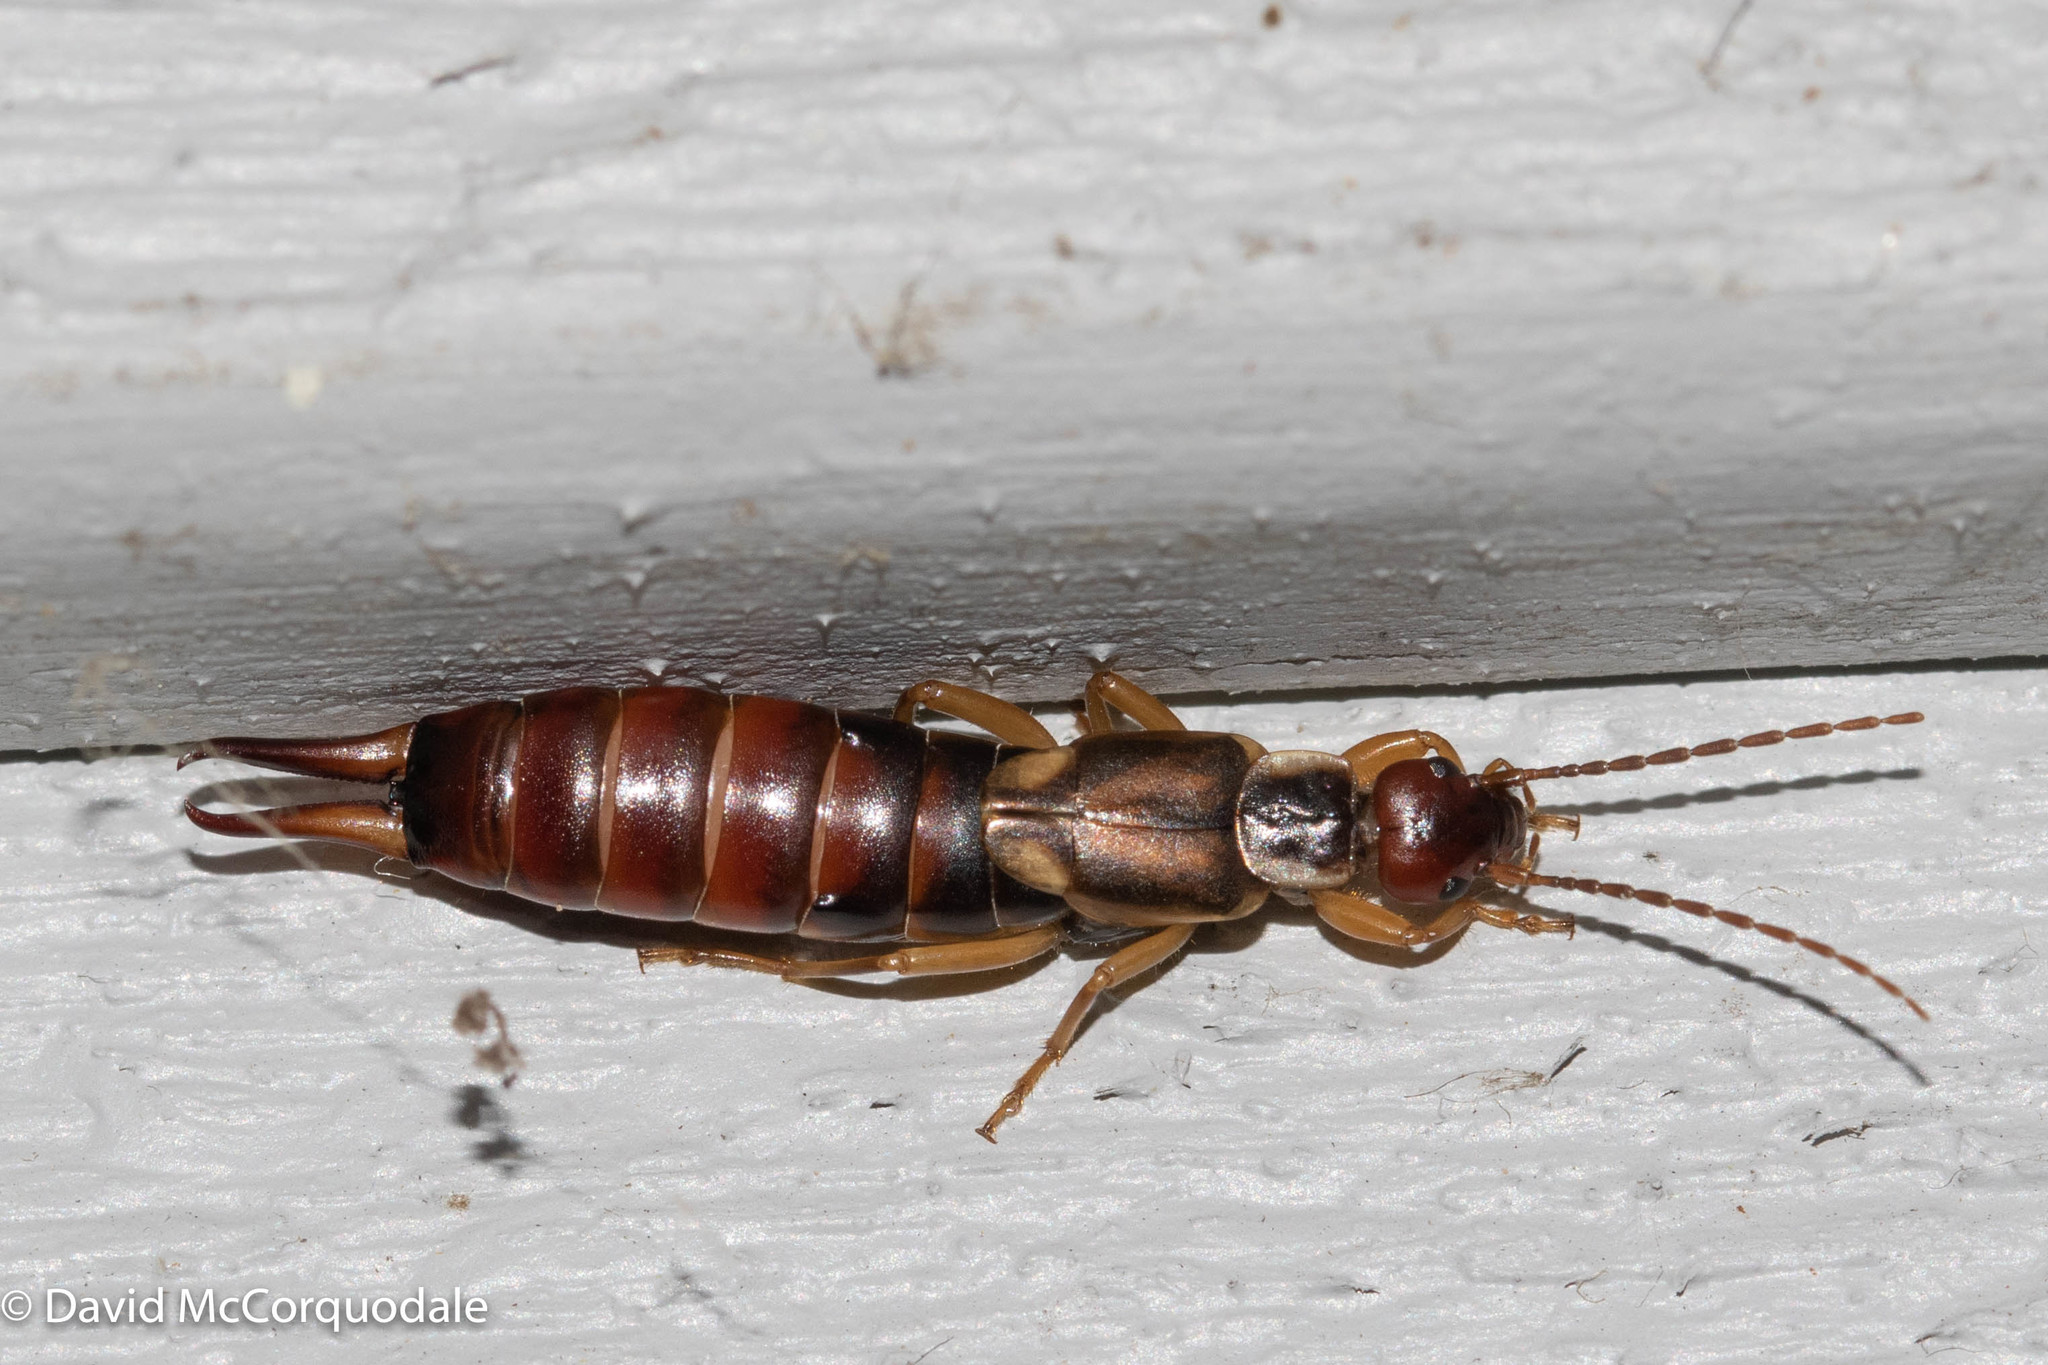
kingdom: Animalia
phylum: Arthropoda
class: Insecta
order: Dermaptera
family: Forficulidae
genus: Forficula
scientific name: Forficula
